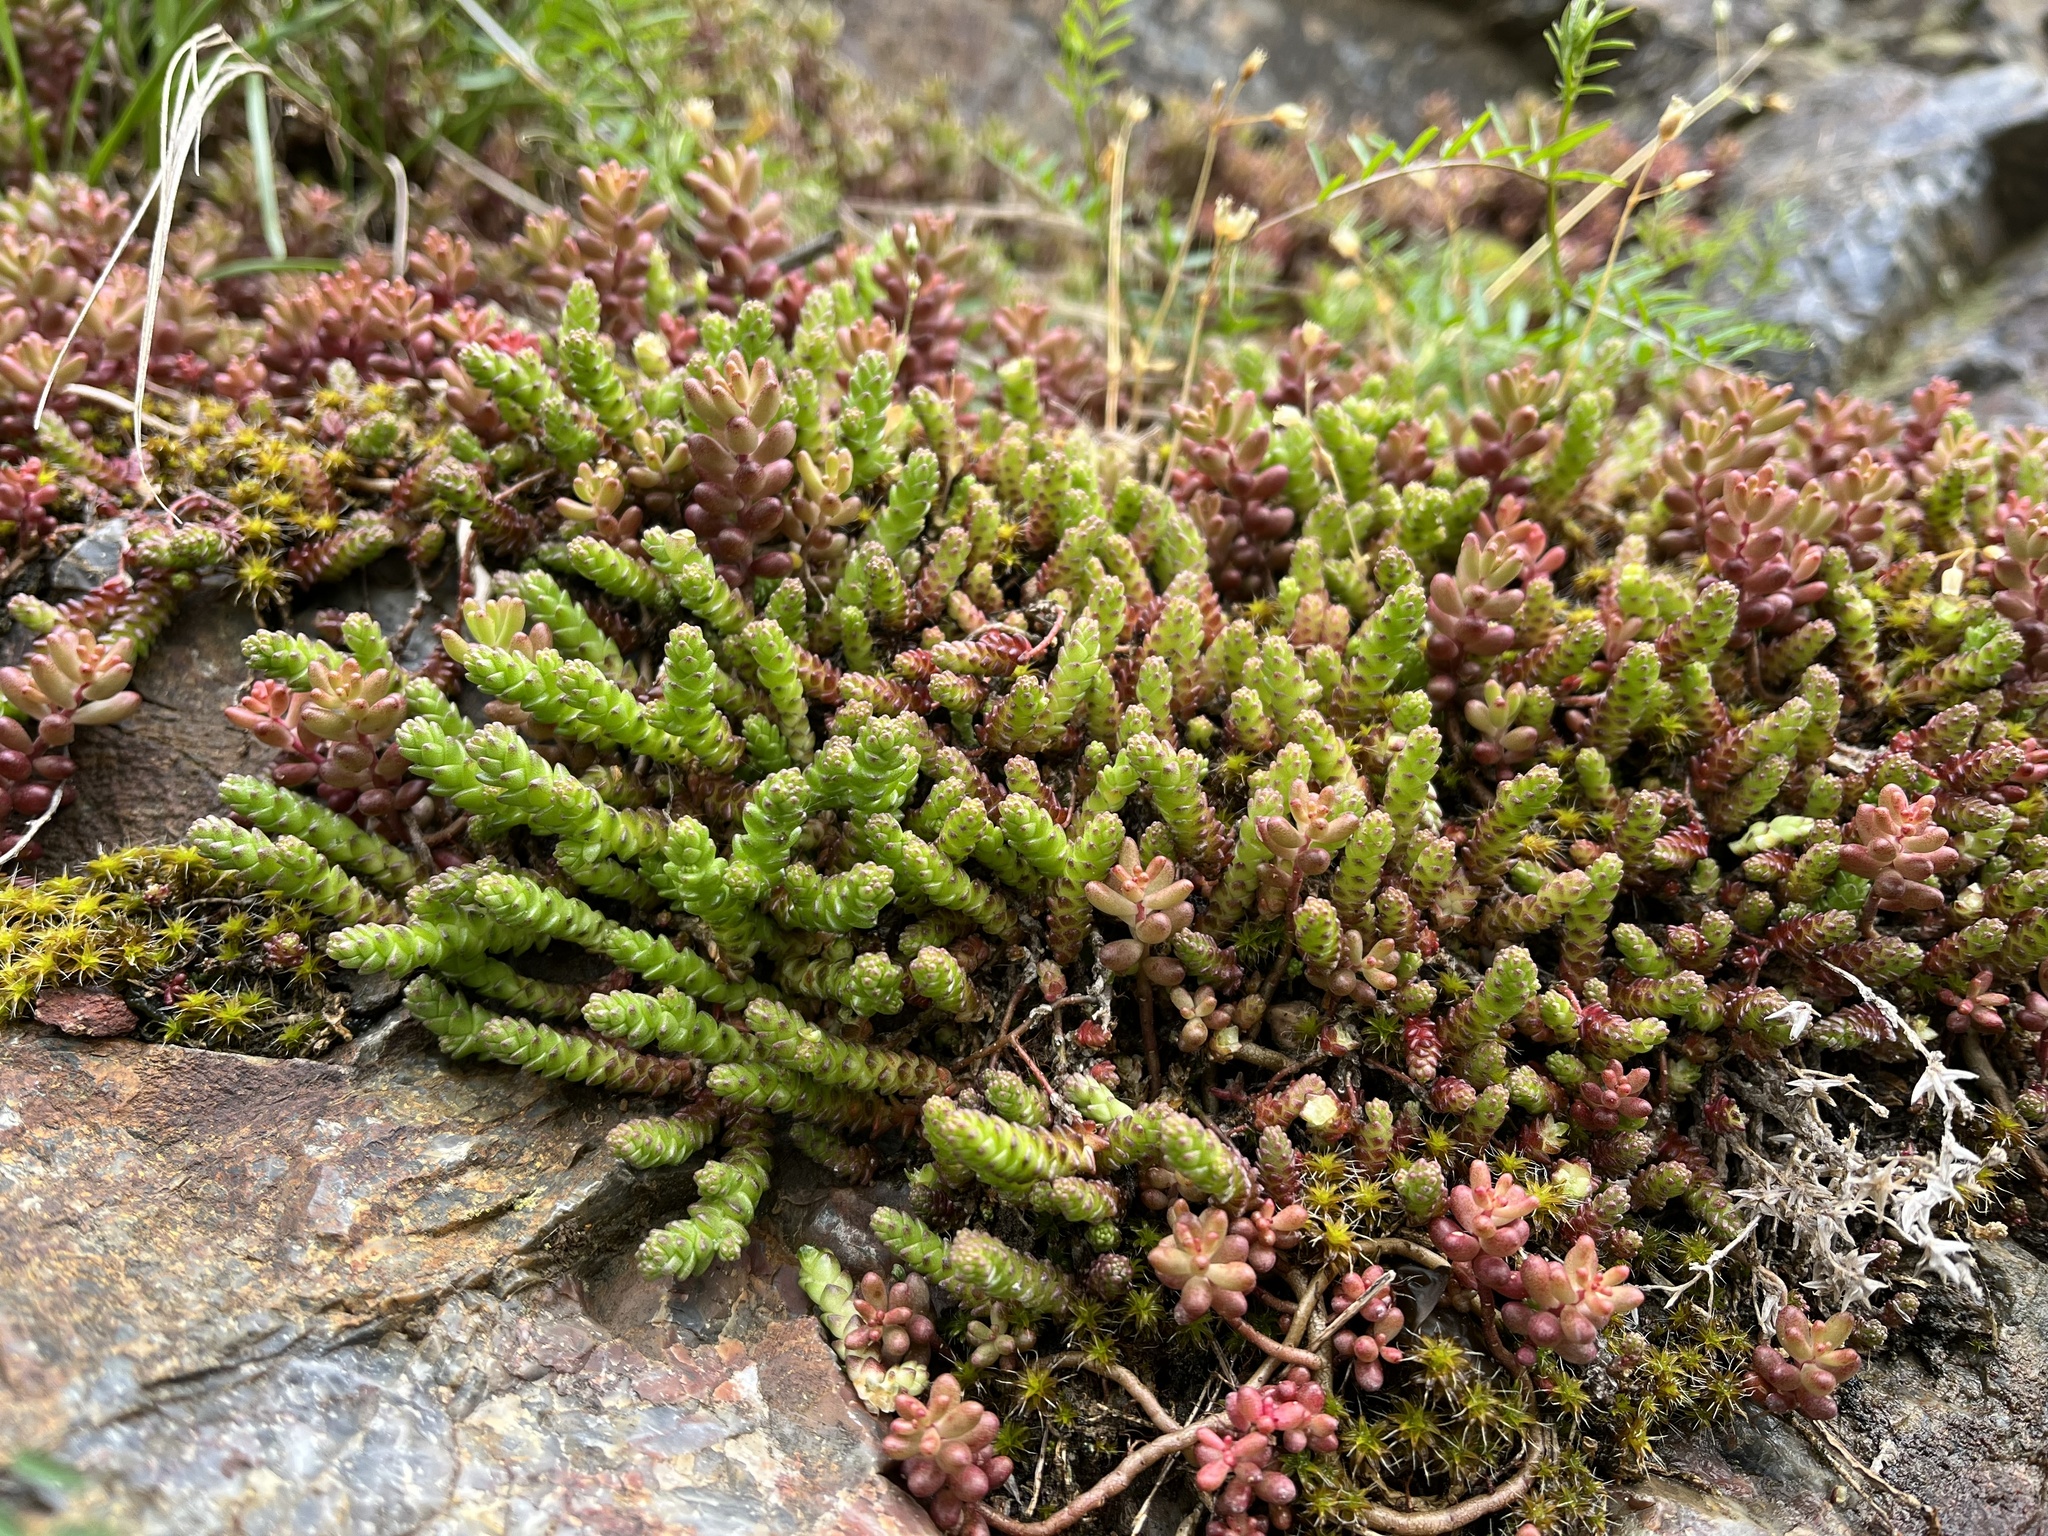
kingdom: Plantae
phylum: Tracheophyta
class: Magnoliopsida
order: Saxifragales
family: Crassulaceae
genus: Sedum
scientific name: Sedum acre
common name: Biting stonecrop
